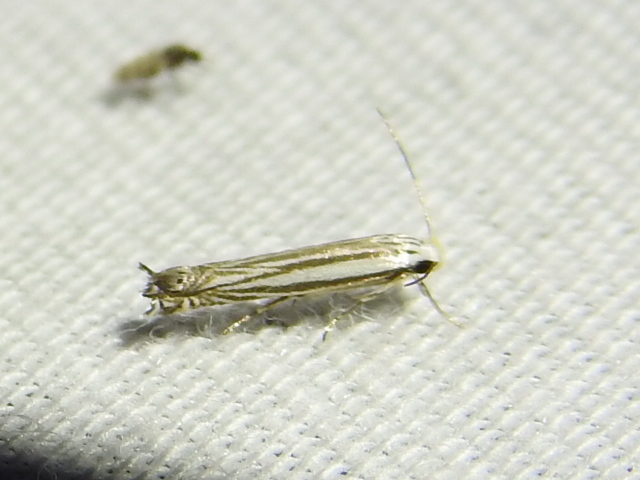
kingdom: Animalia
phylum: Arthropoda
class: Insecta
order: Lepidoptera
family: Gelechiidae
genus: Polyhymno
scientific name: Polyhymno luteostrigella
